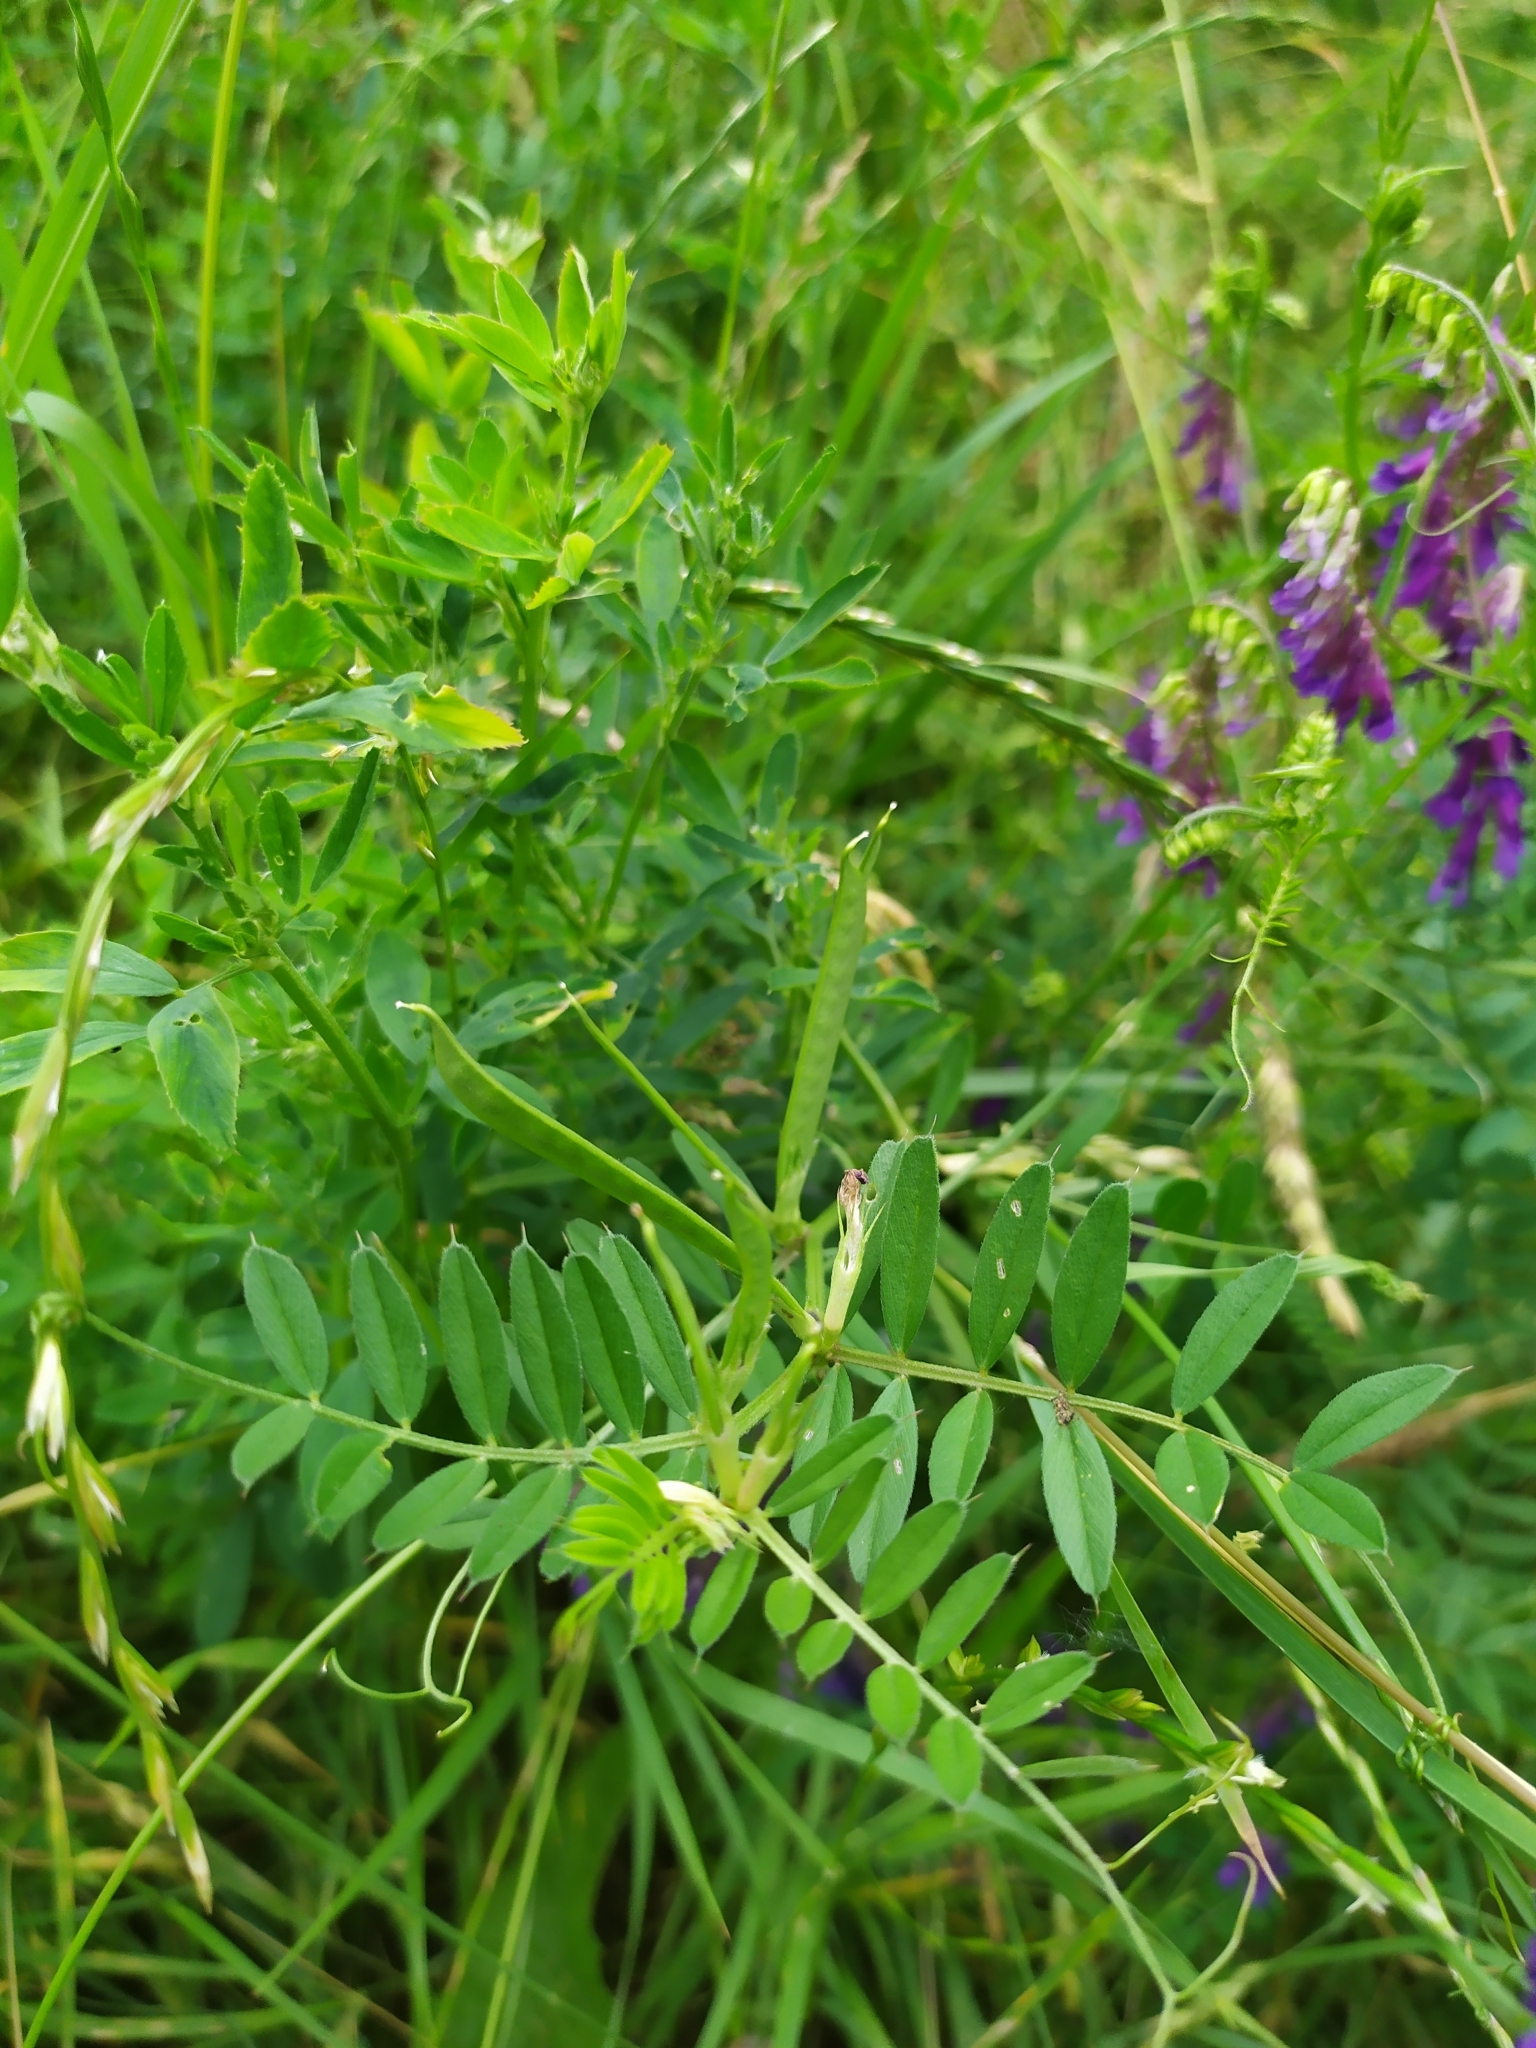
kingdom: Plantae
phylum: Tracheophyta
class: Magnoliopsida
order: Fabales
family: Fabaceae
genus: Vicia
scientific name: Vicia villosa
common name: Fodder vetch
